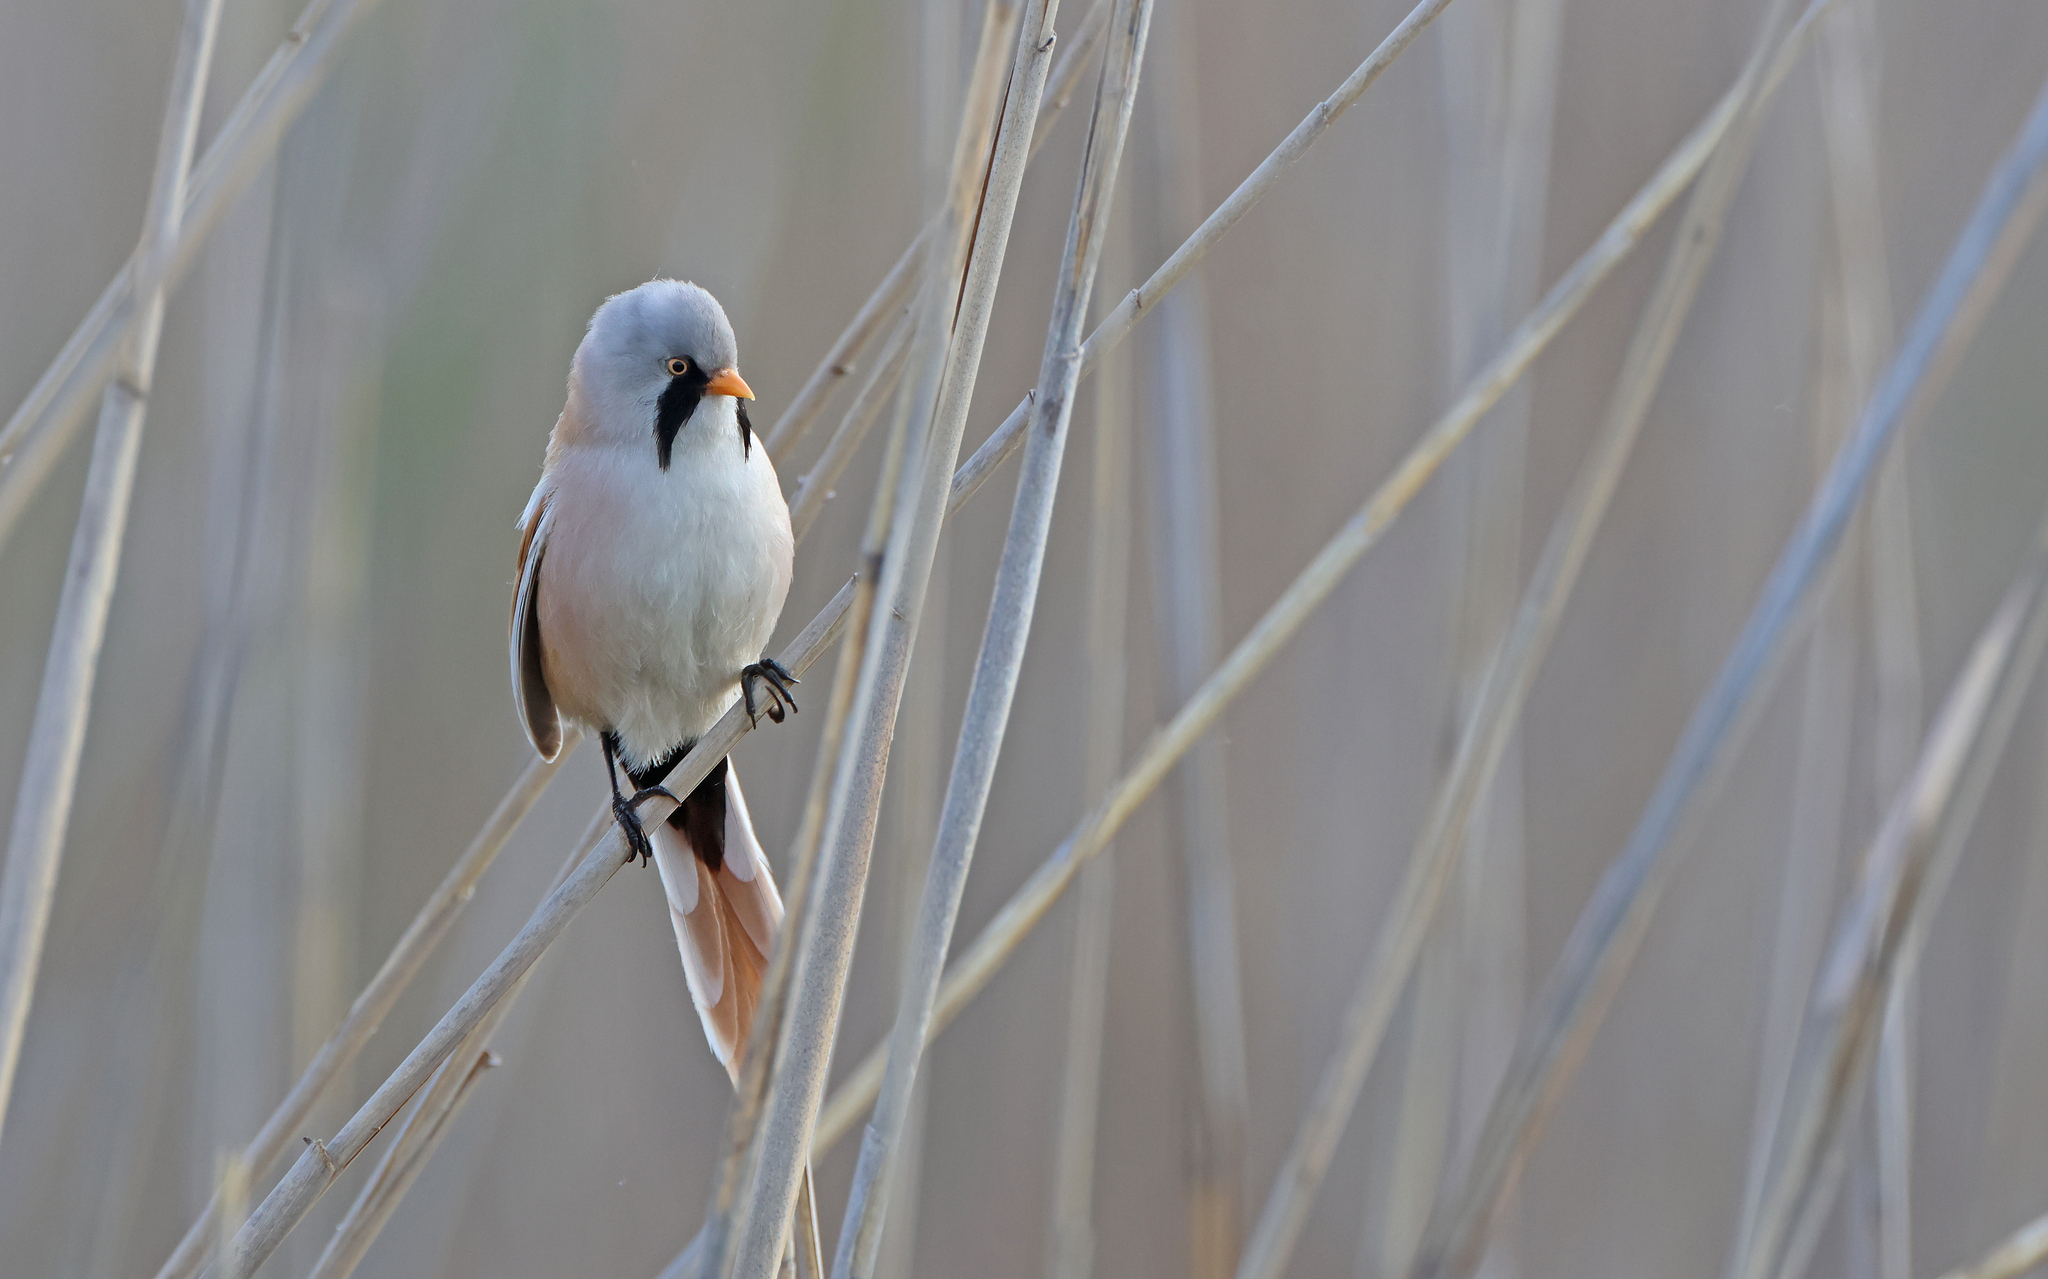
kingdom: Animalia
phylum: Chordata
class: Aves
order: Passeriformes
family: Panuridae
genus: Panurus
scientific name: Panurus biarmicus
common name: Bearded reedling
